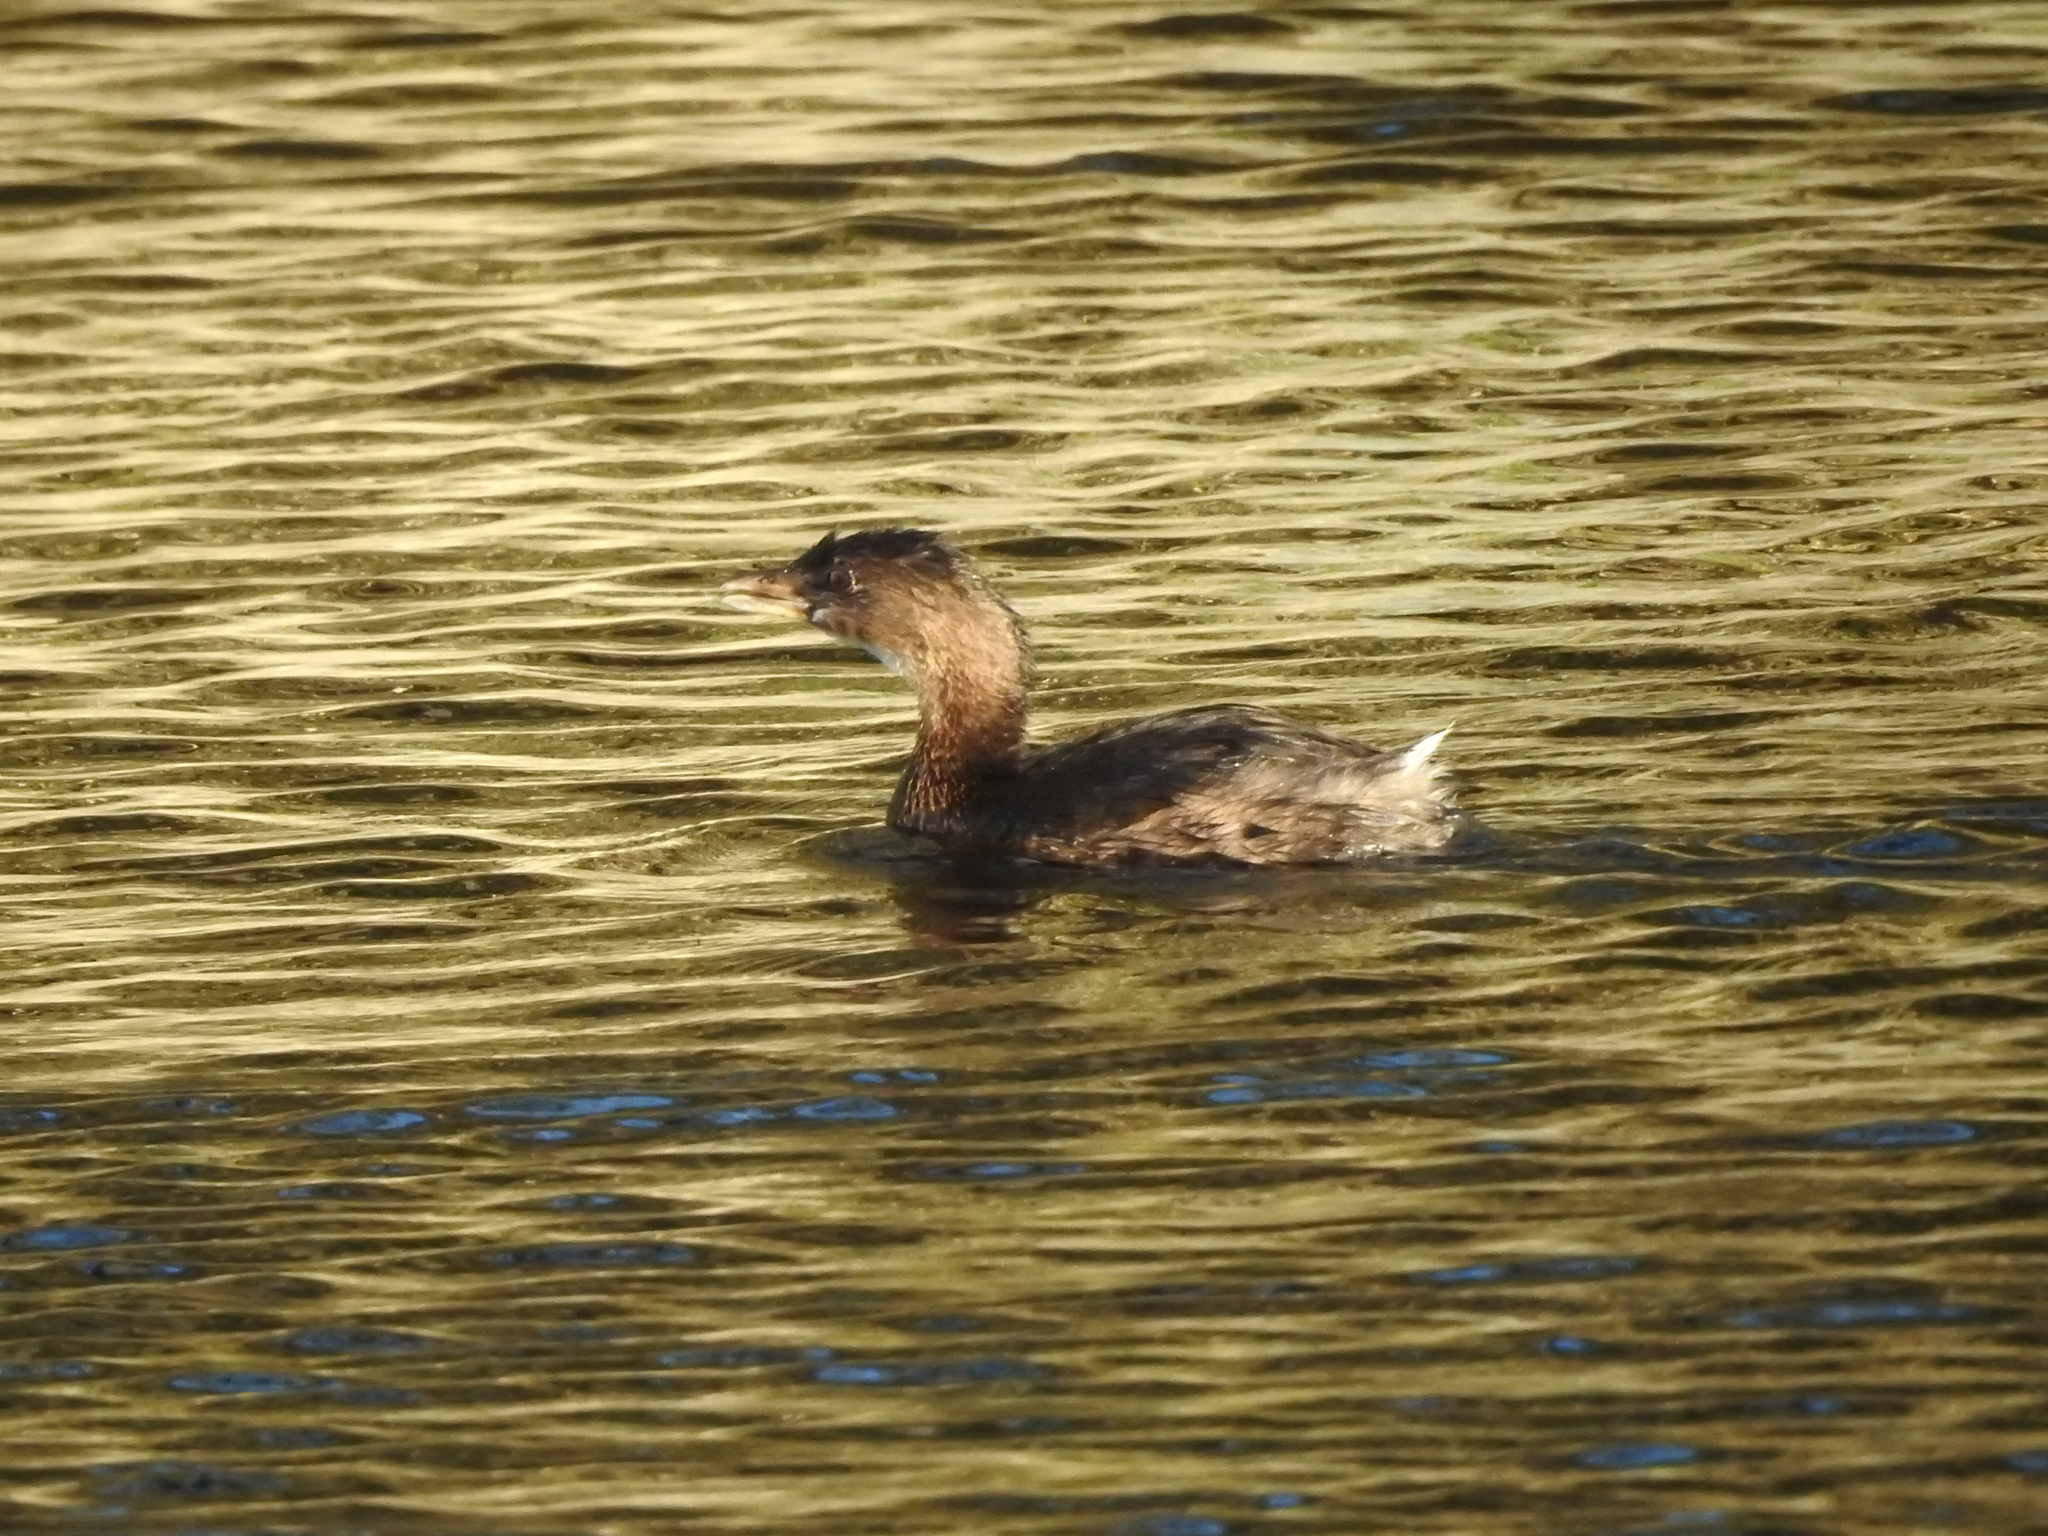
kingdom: Animalia
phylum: Chordata
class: Aves
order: Podicipediformes
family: Podicipedidae
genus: Podilymbus
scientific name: Podilymbus podiceps
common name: Pied-billed grebe
